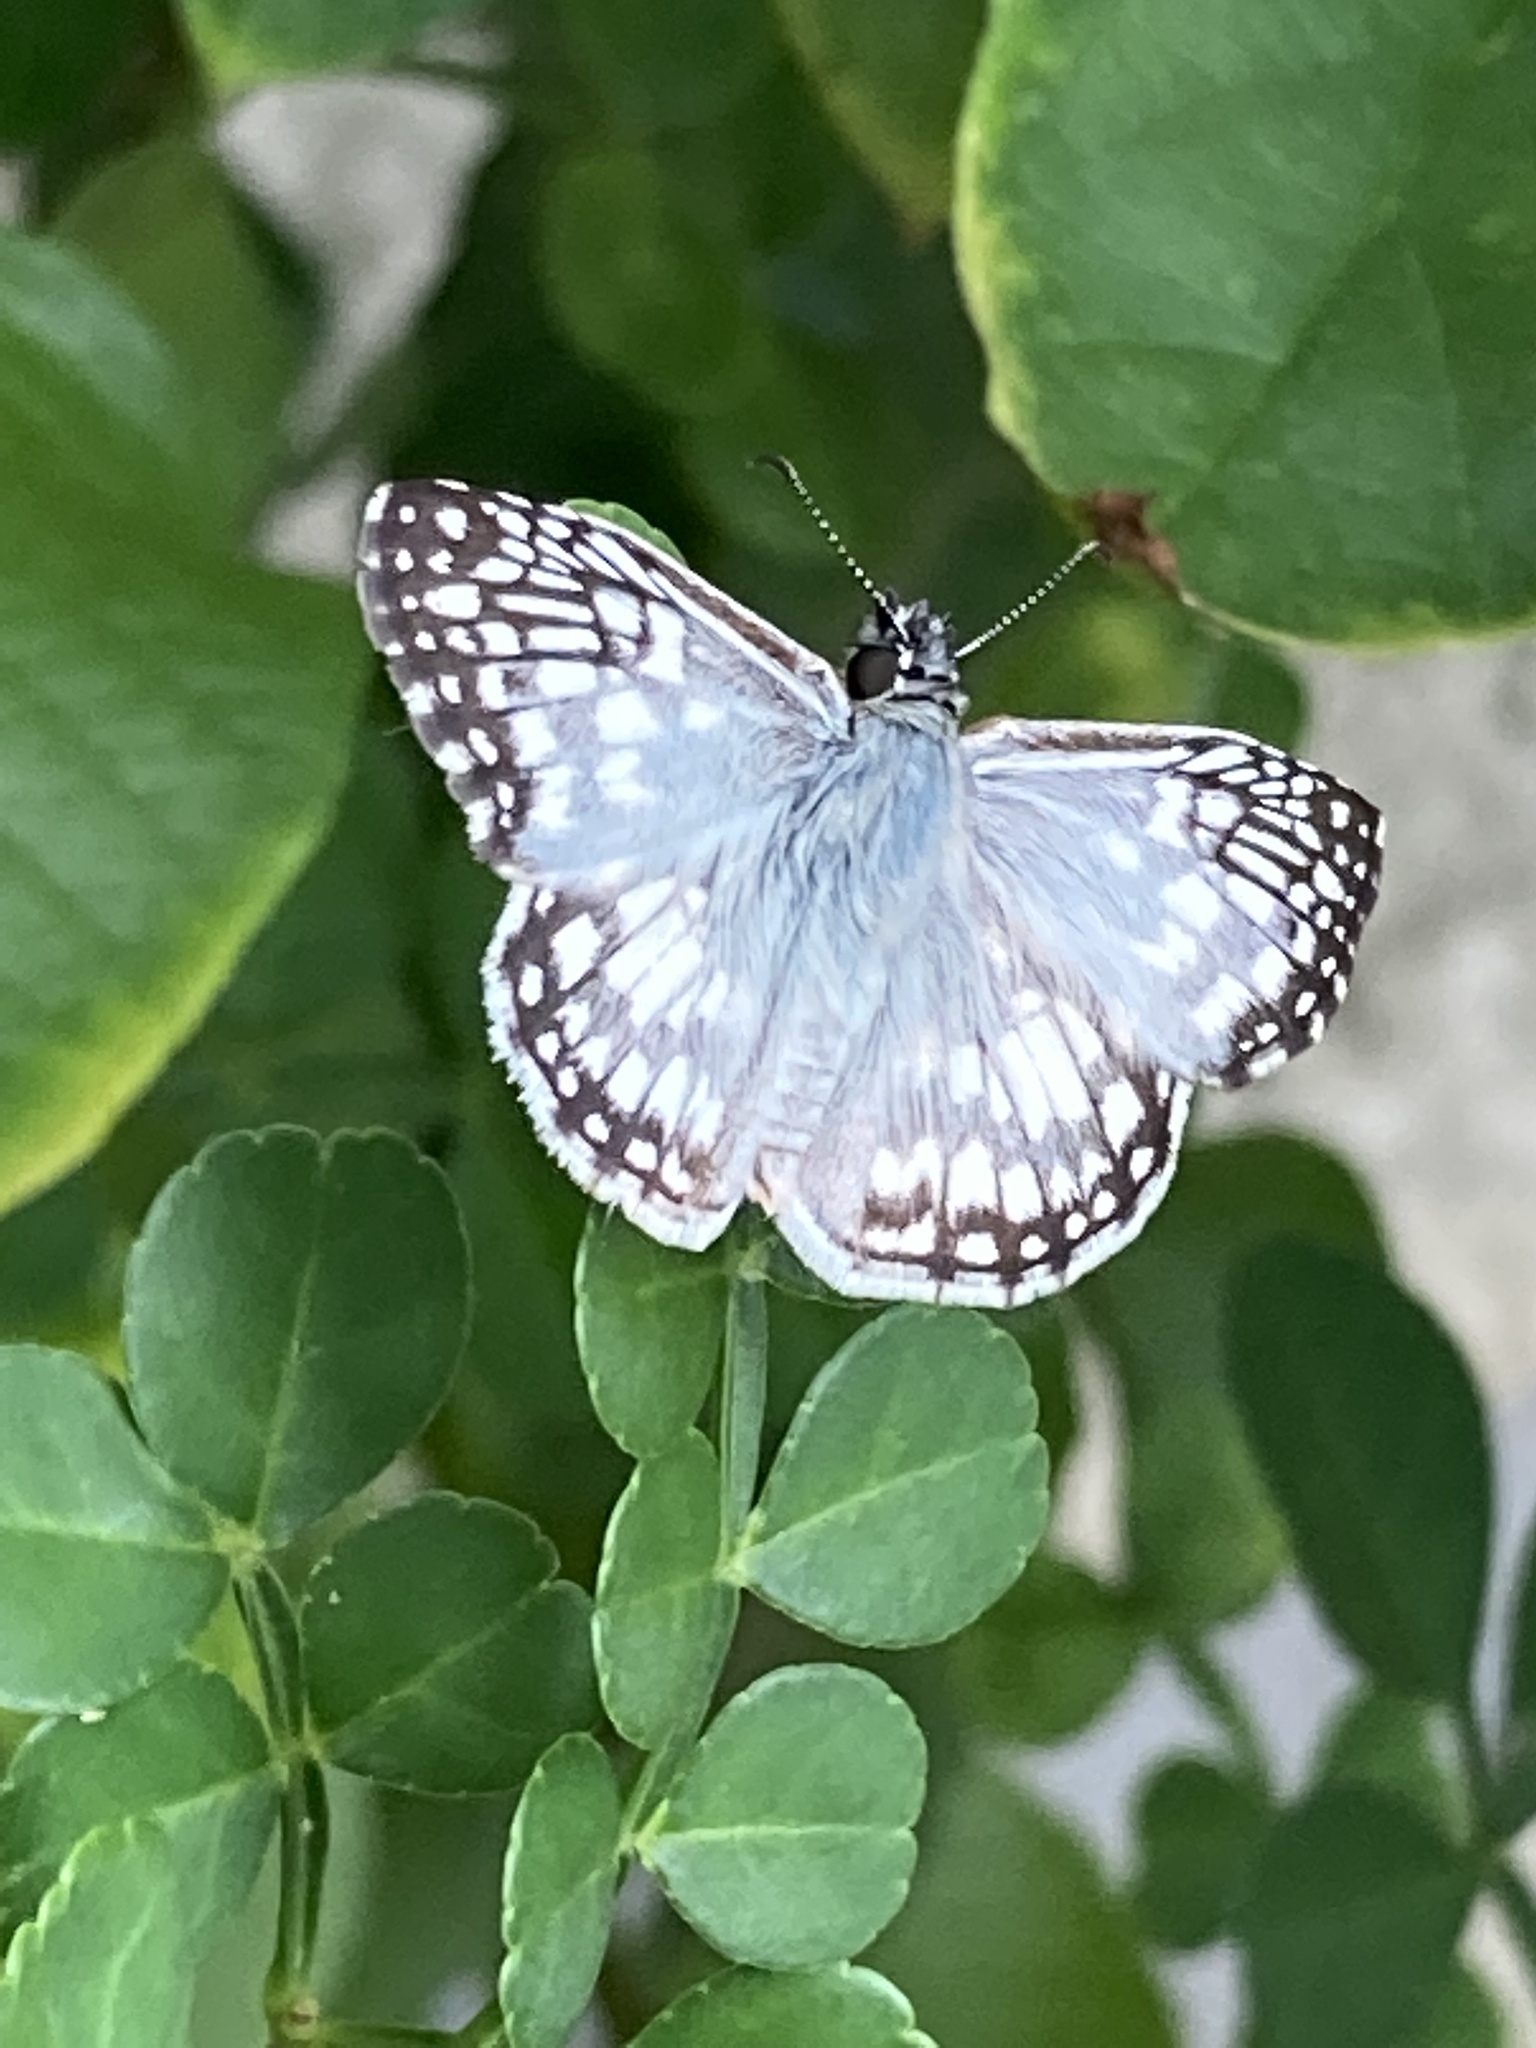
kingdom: Animalia
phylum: Arthropoda
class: Insecta
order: Lepidoptera
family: Hesperiidae
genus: Pyrgus
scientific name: Pyrgus oileus
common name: Tropical checkered-skipper
